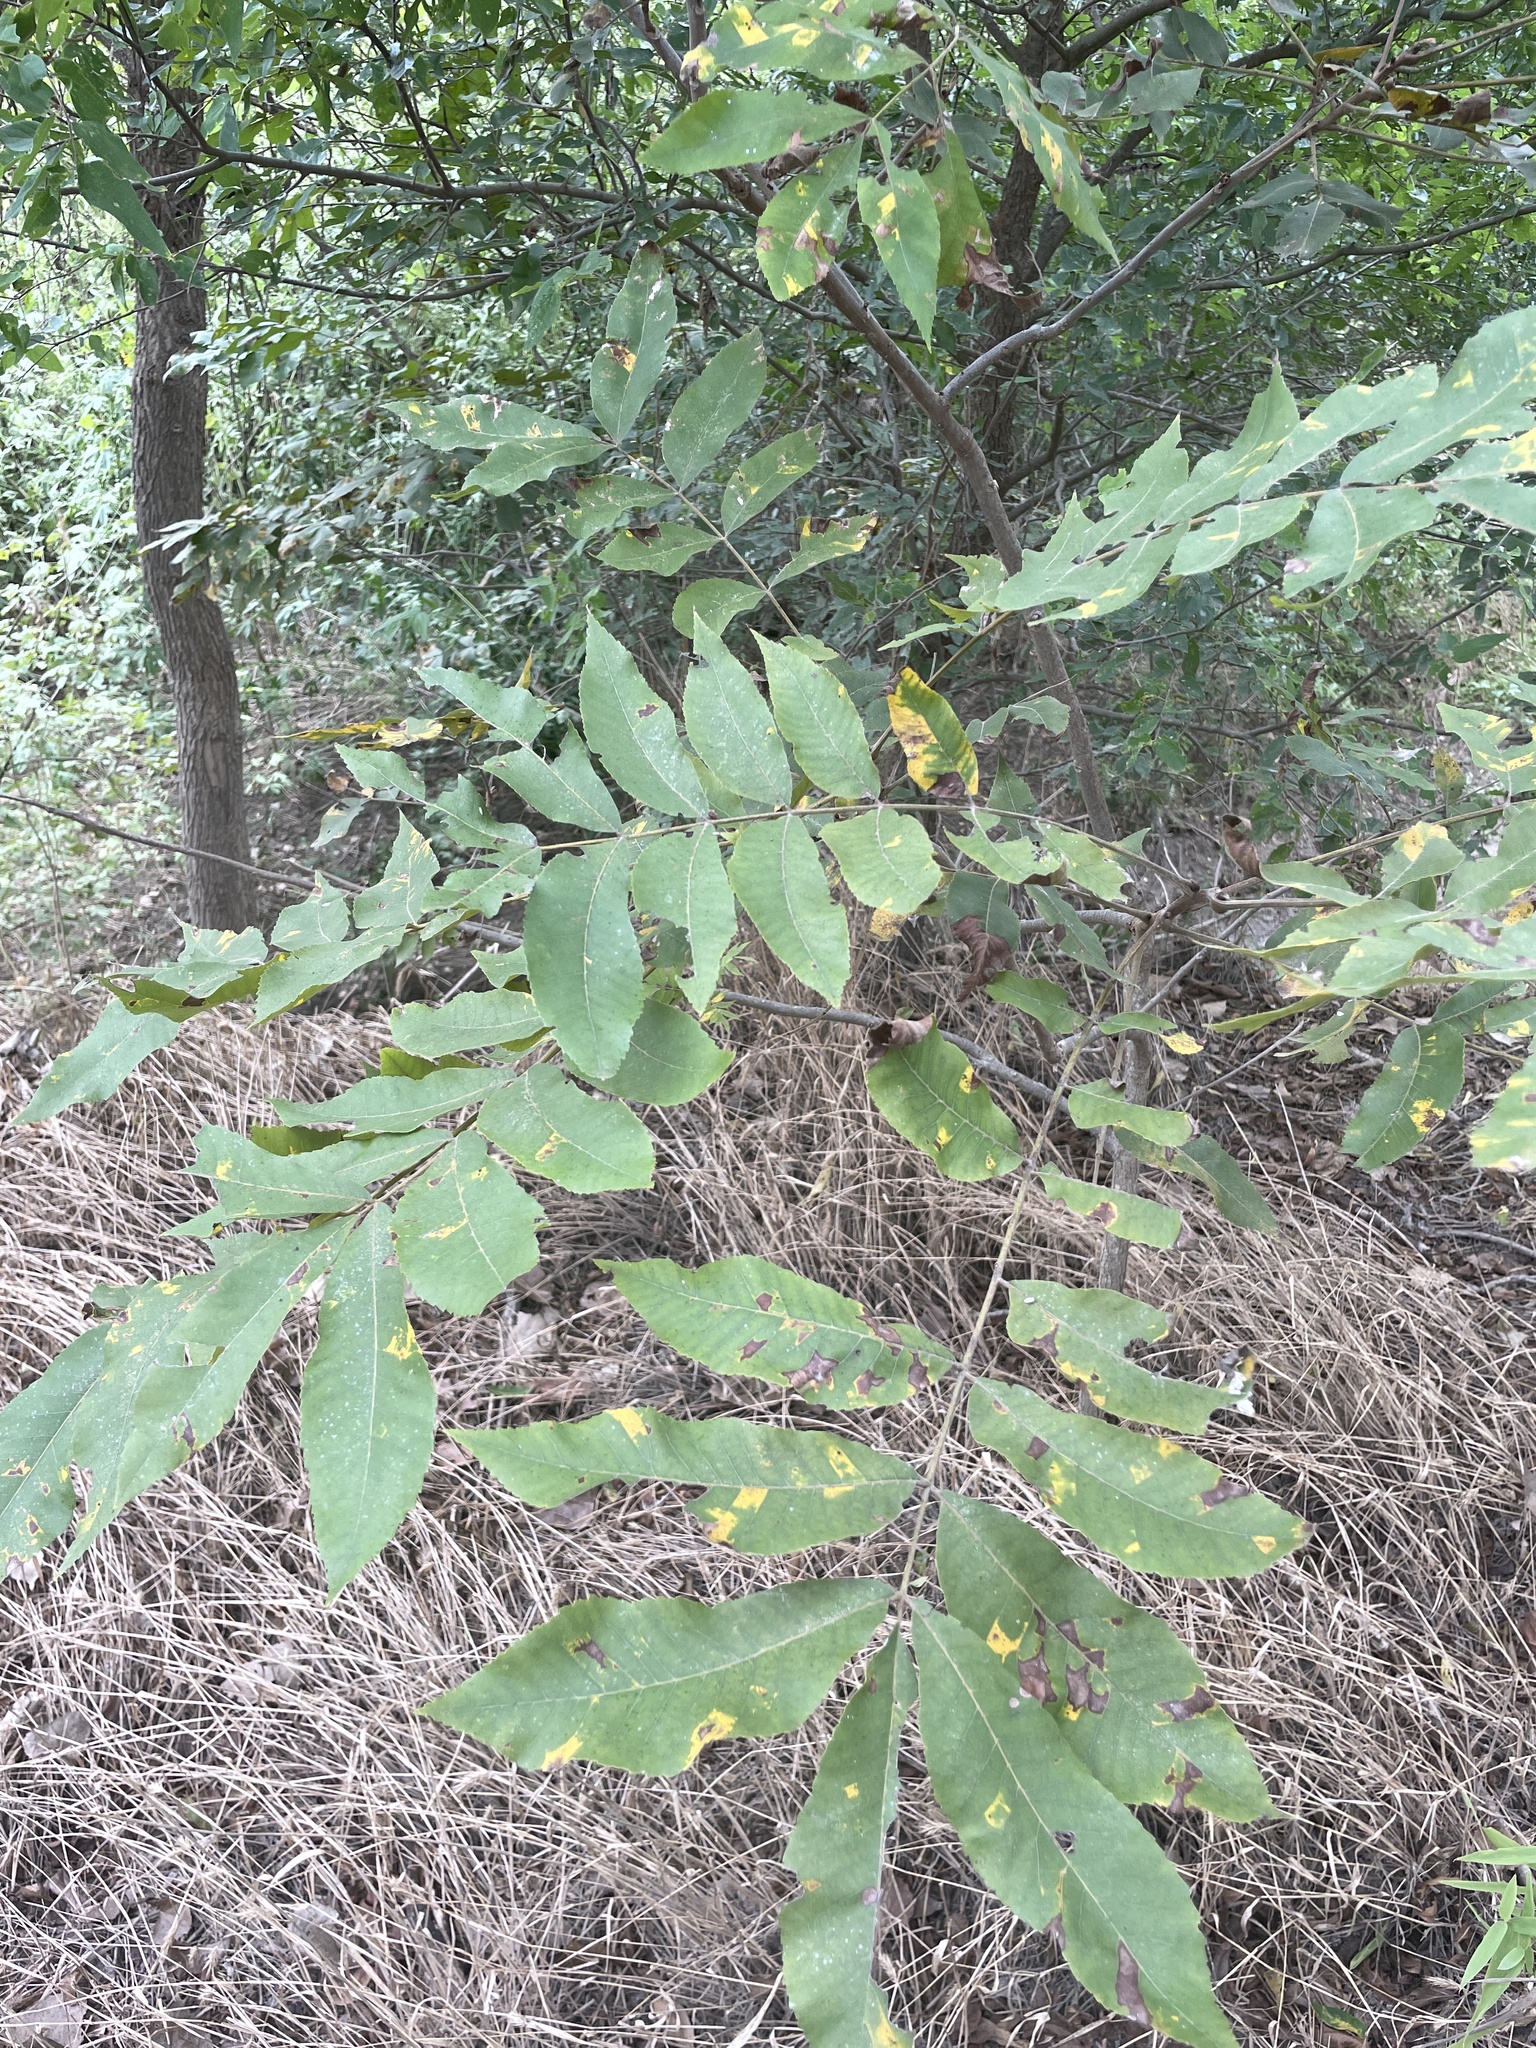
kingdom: Plantae
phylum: Tracheophyta
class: Magnoliopsida
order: Fagales
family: Juglandaceae
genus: Carya
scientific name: Carya illinoinensis
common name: Pecan
